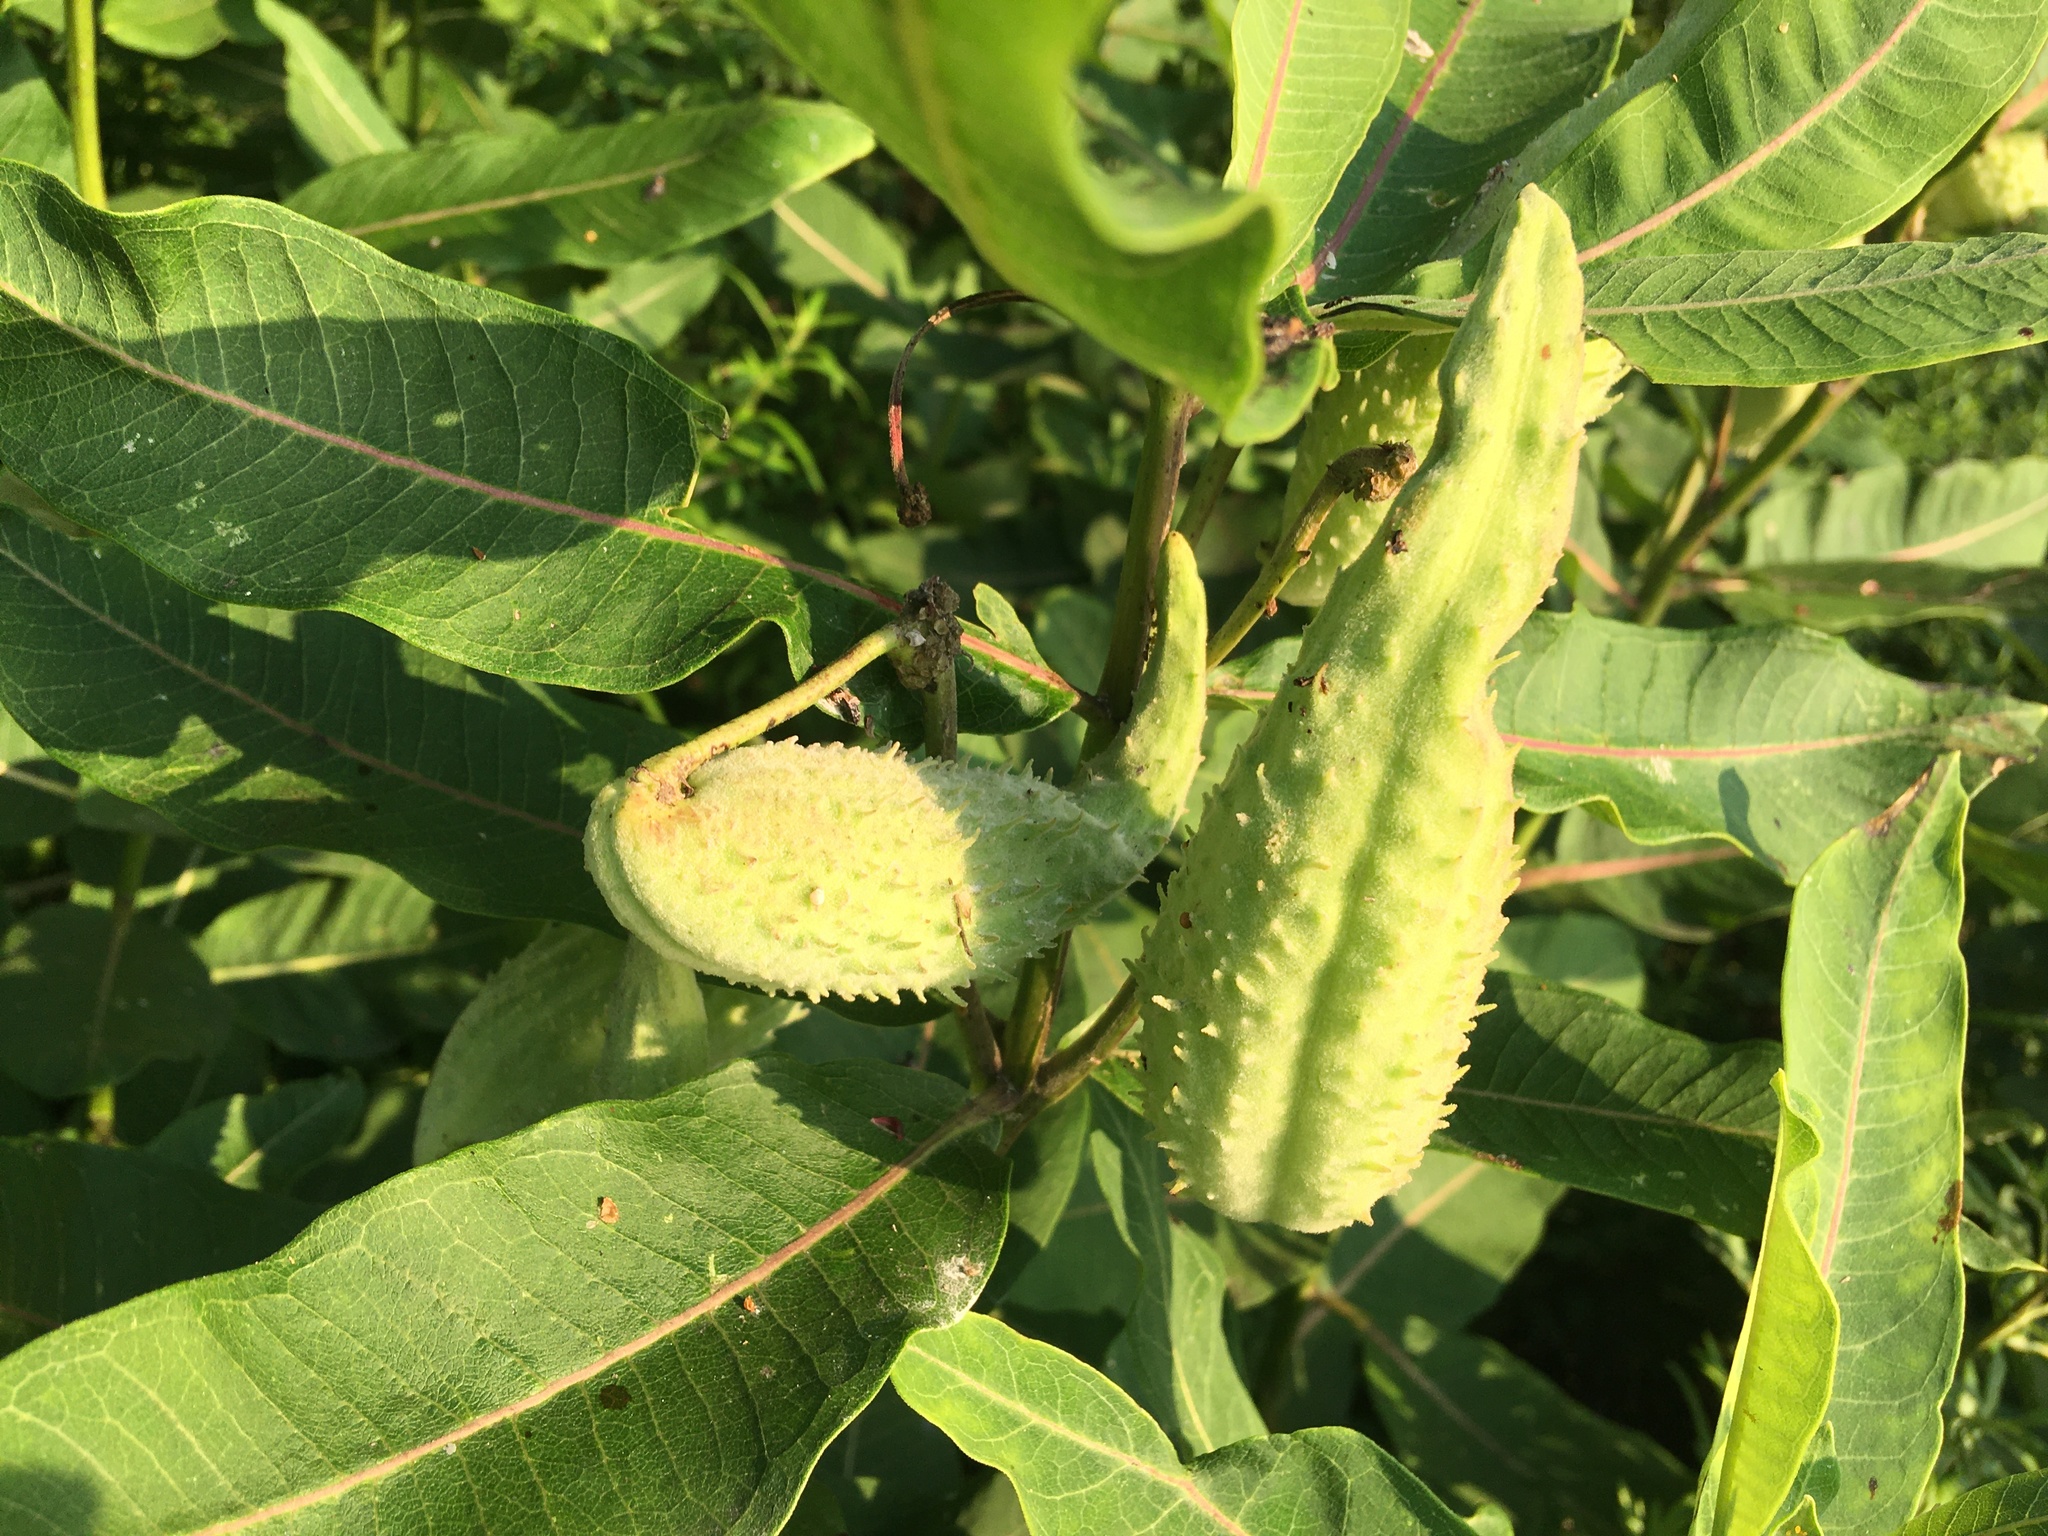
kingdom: Plantae
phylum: Tracheophyta
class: Magnoliopsida
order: Gentianales
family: Apocynaceae
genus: Asclepias
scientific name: Asclepias syriaca
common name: Common milkweed
